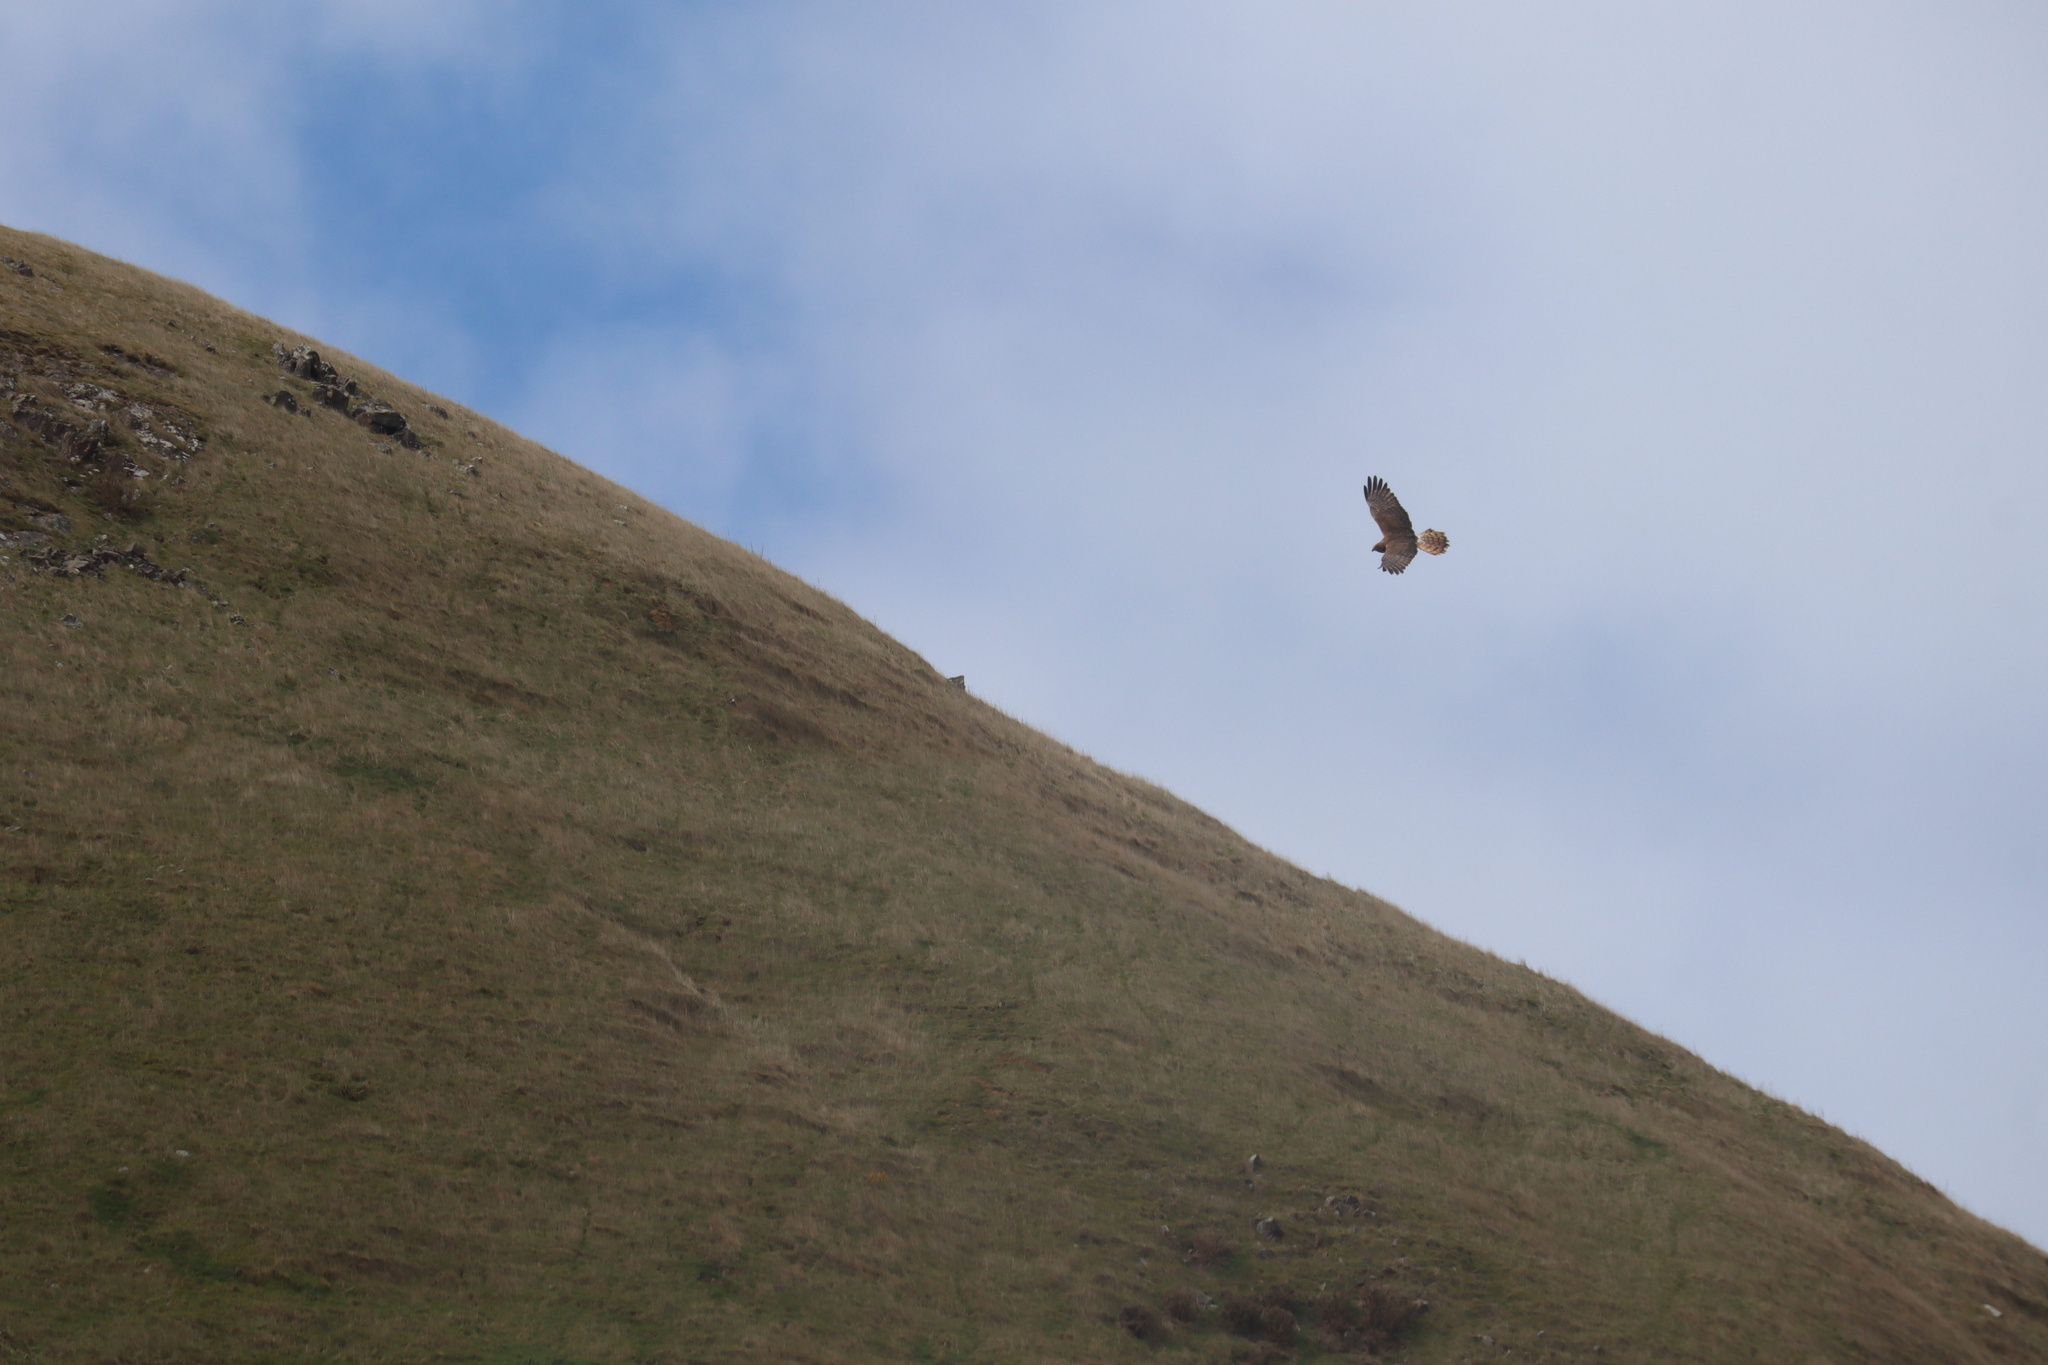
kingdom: Animalia
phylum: Chordata
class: Aves
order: Accipitriformes
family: Accipitridae
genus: Circus
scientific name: Circus approximans
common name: Swamp harrier
